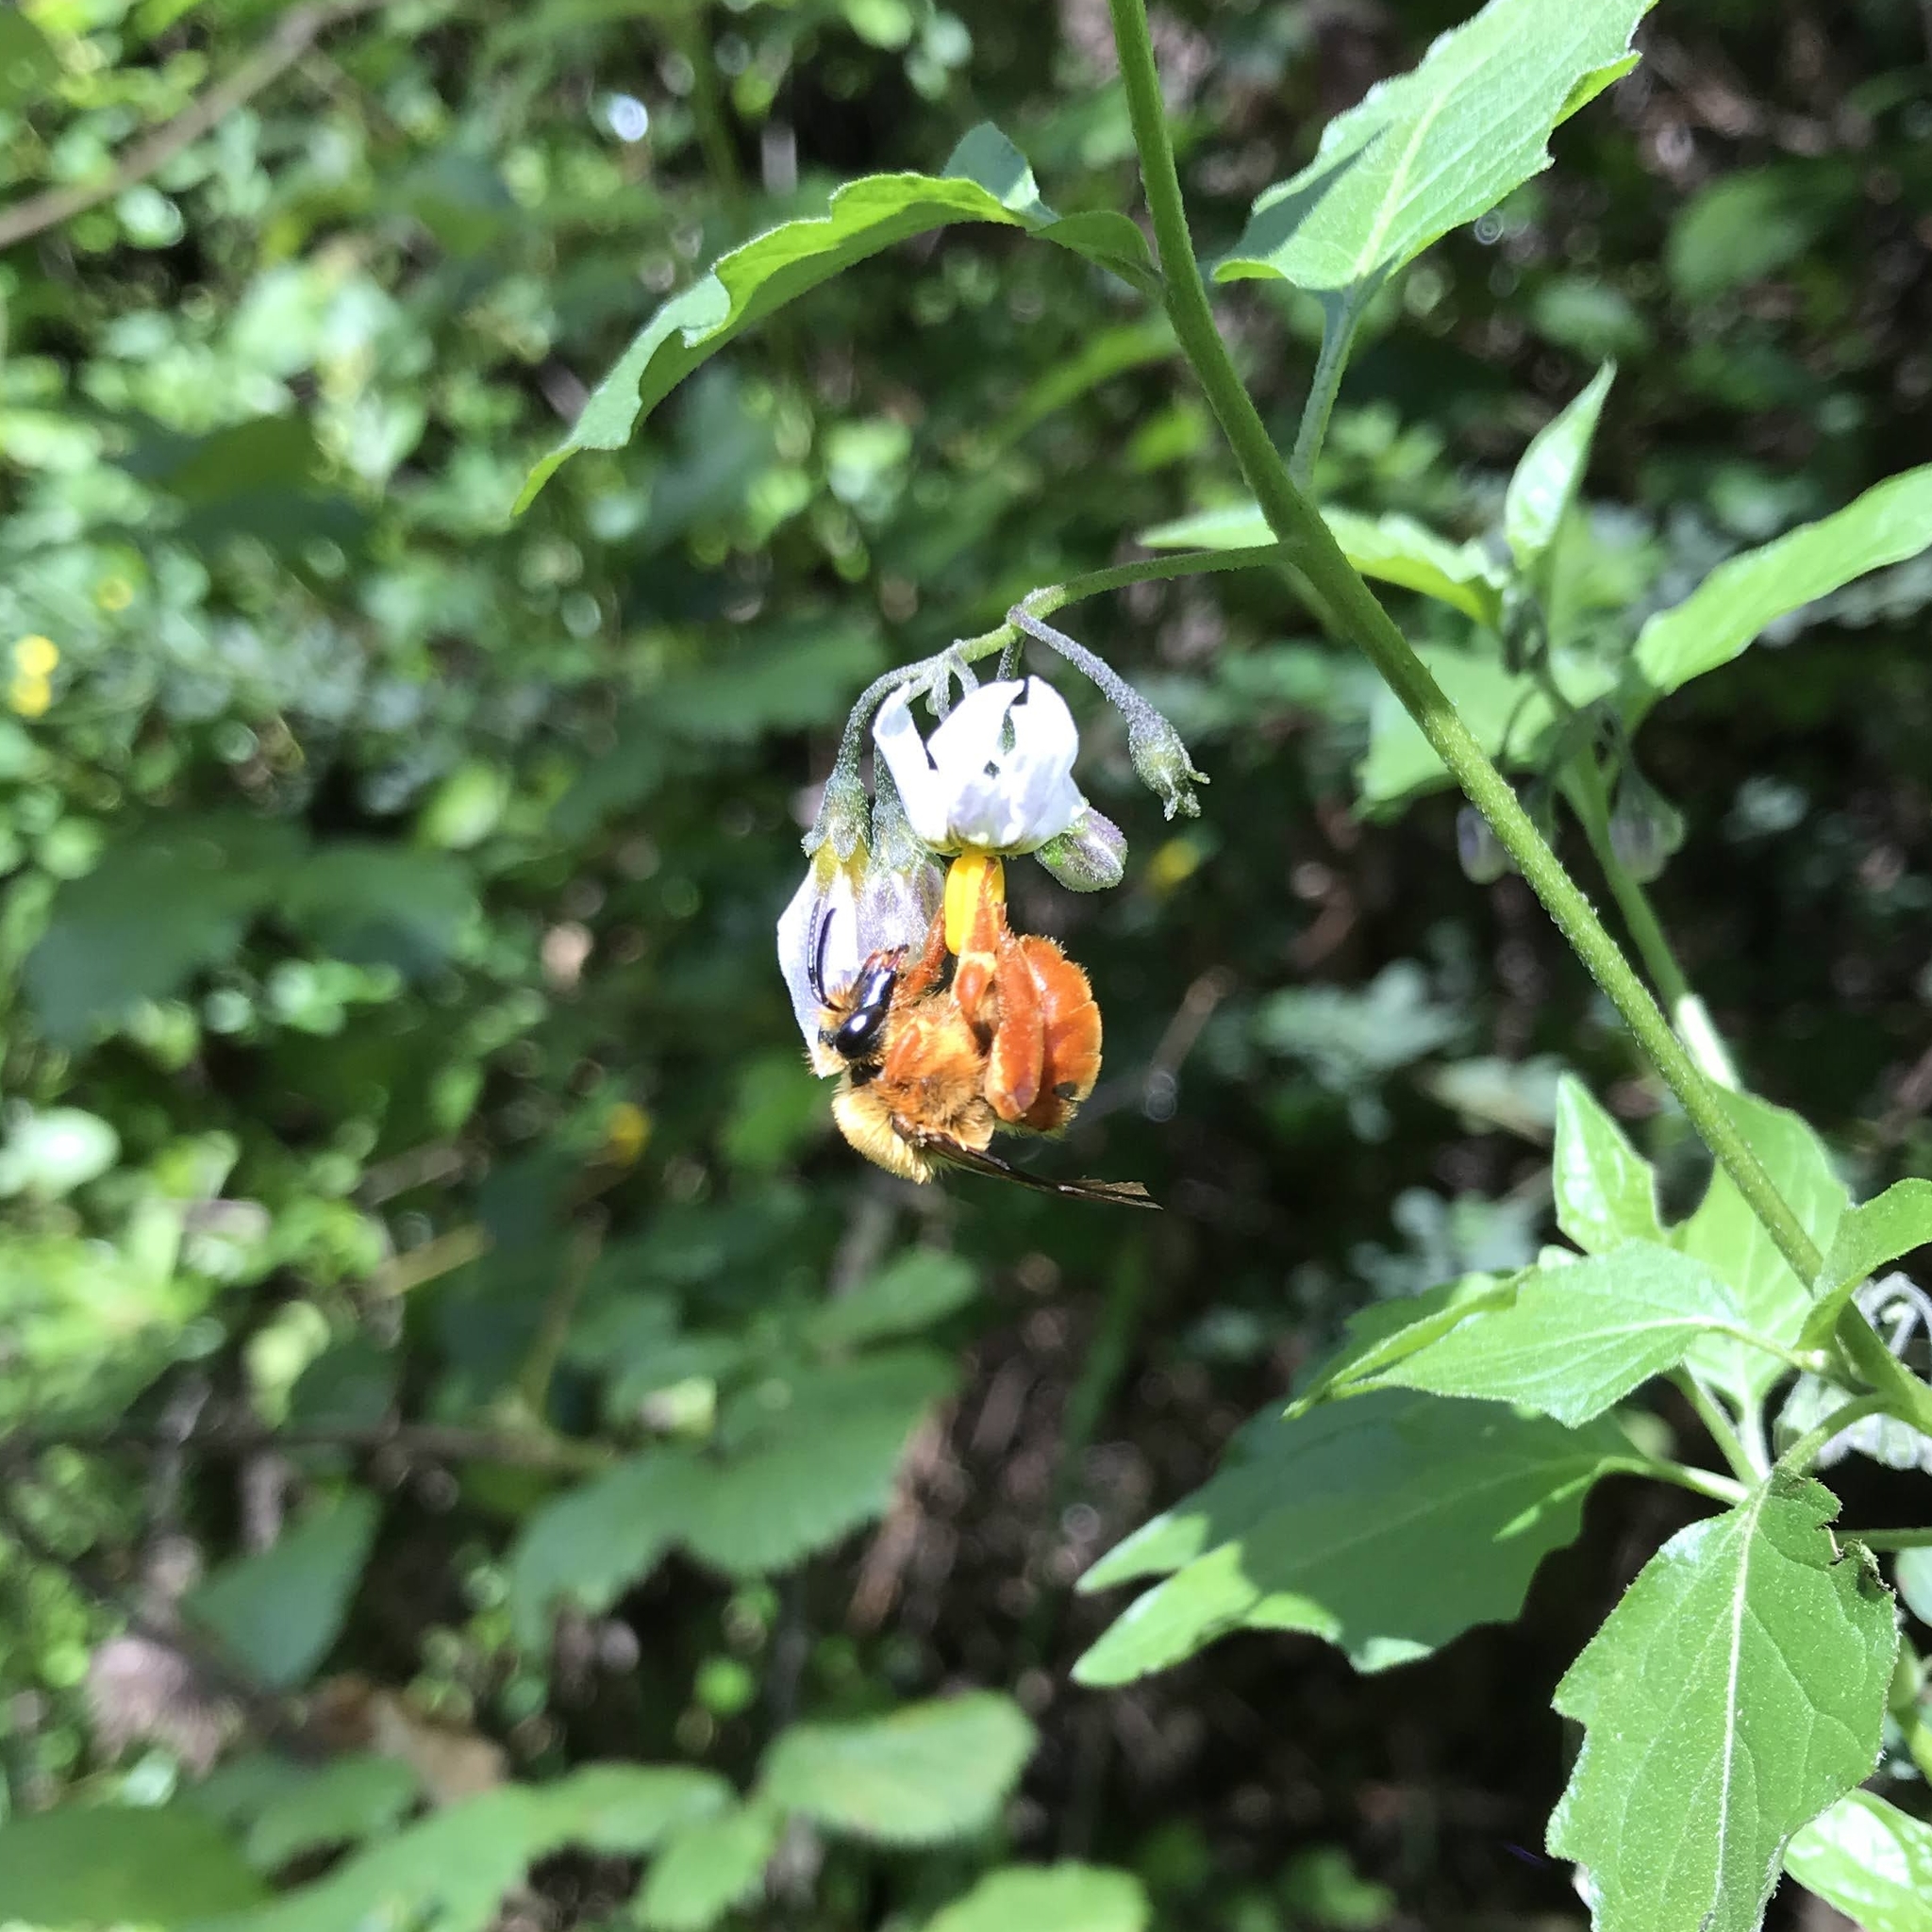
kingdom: Animalia
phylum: Arthropoda
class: Insecta
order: Hymenoptera
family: Colletidae
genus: Diphaglossa
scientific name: Diphaglossa gayi
